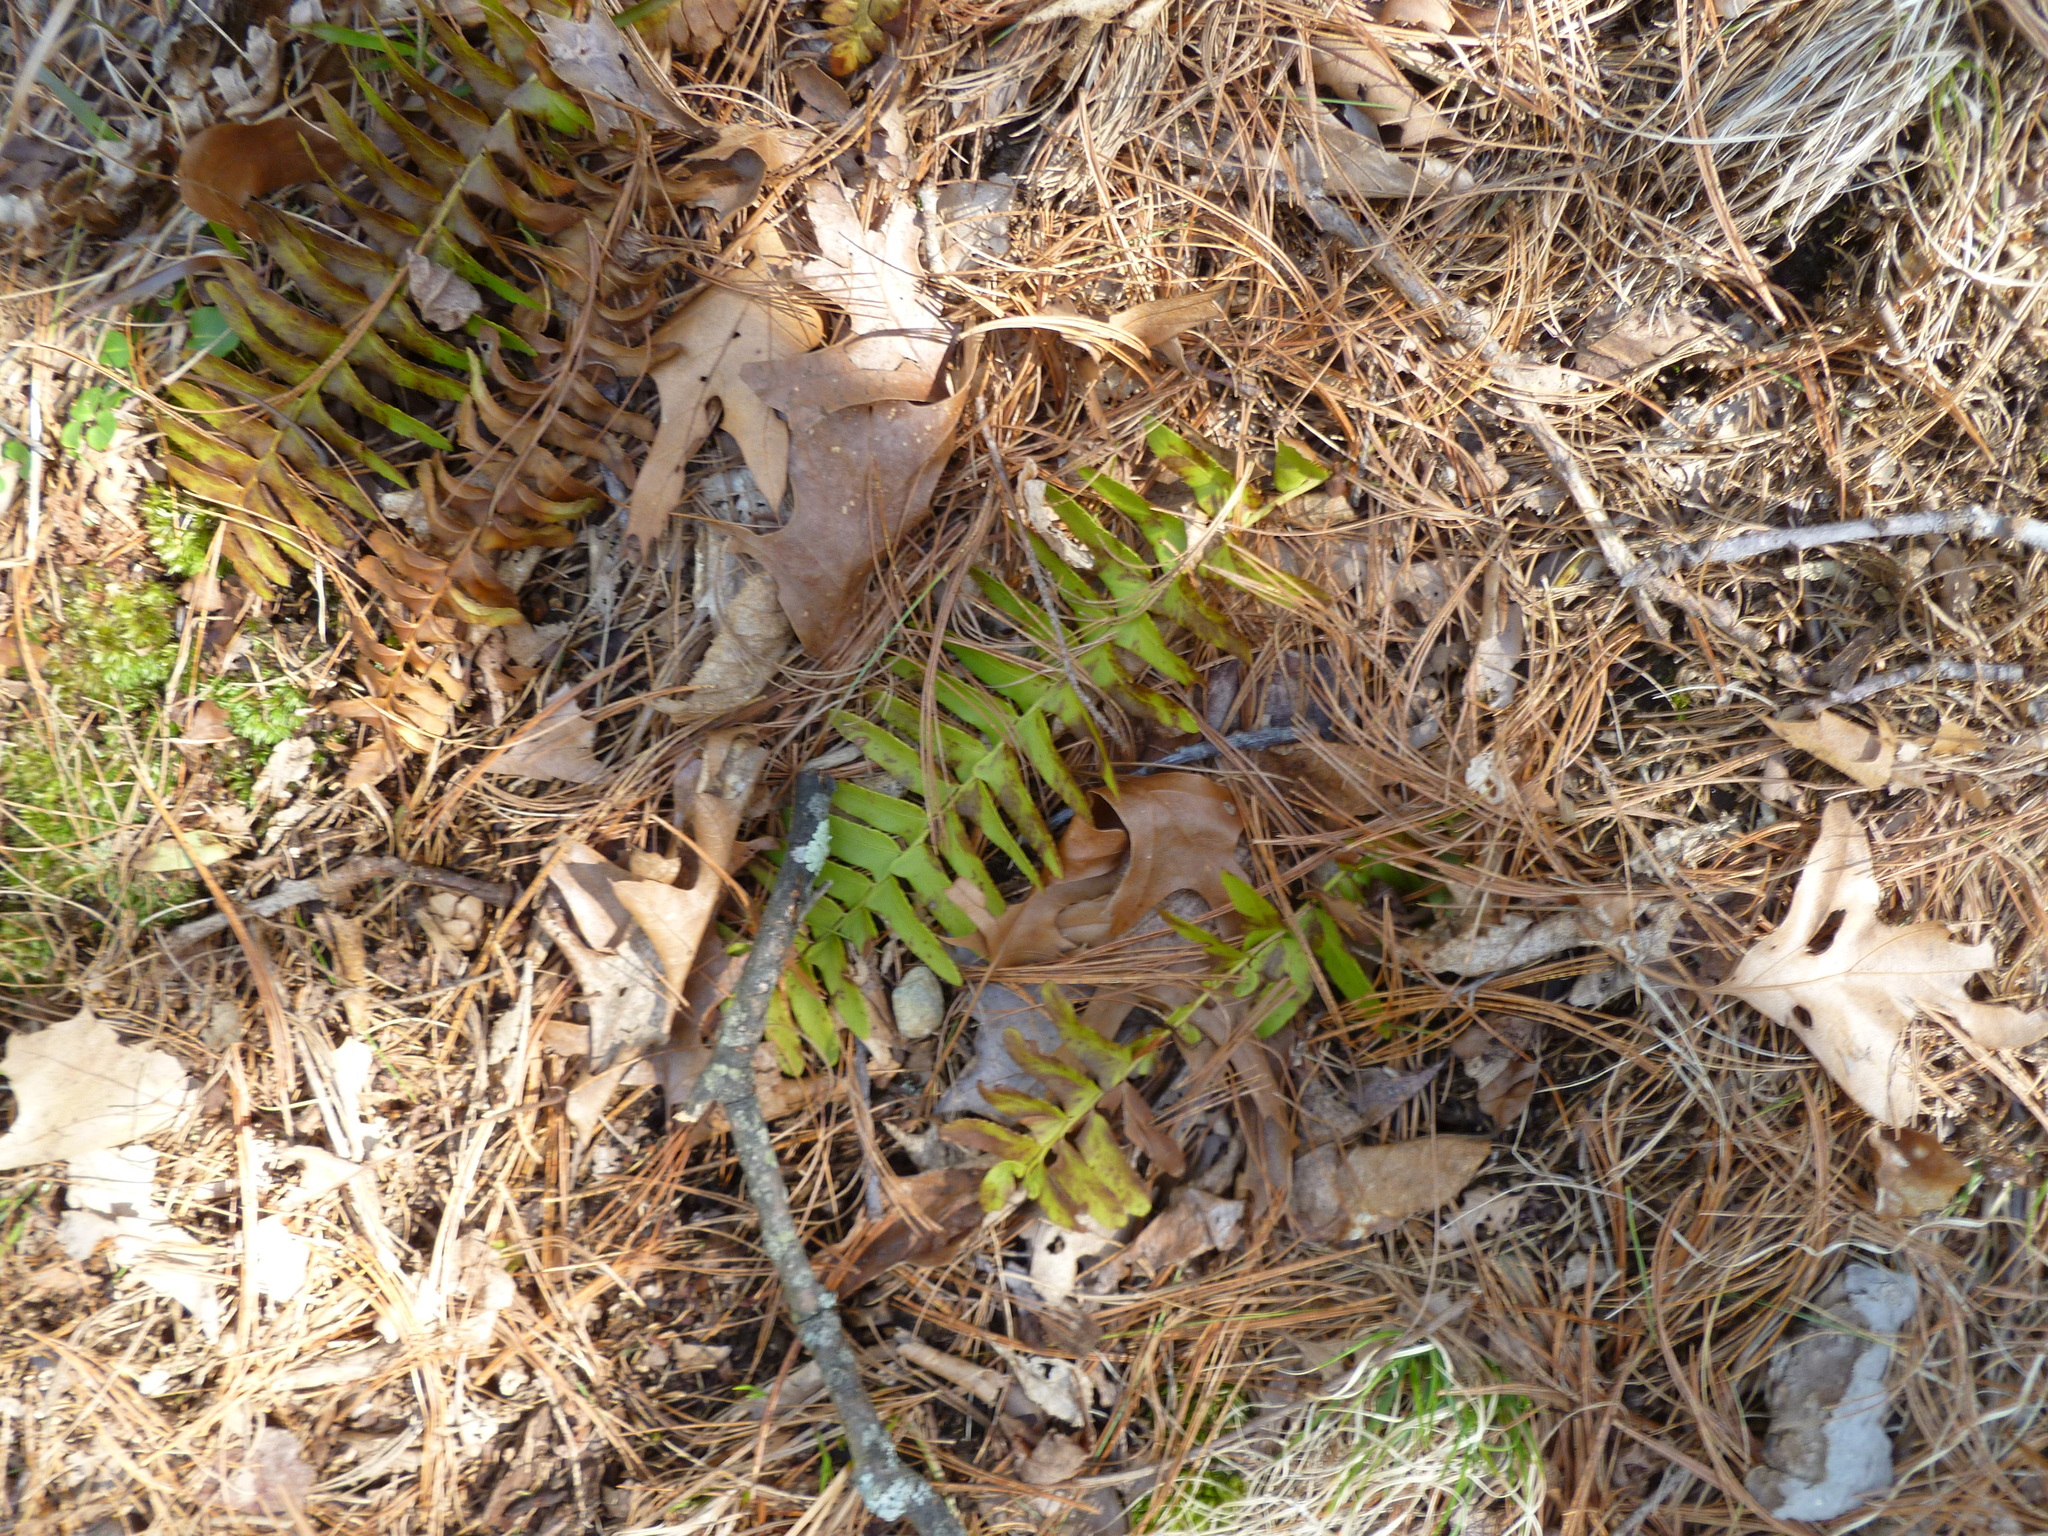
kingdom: Plantae
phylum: Tracheophyta
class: Polypodiopsida
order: Polypodiales
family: Dryopteridaceae
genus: Polystichum
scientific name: Polystichum acrostichoides
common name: Christmas fern
